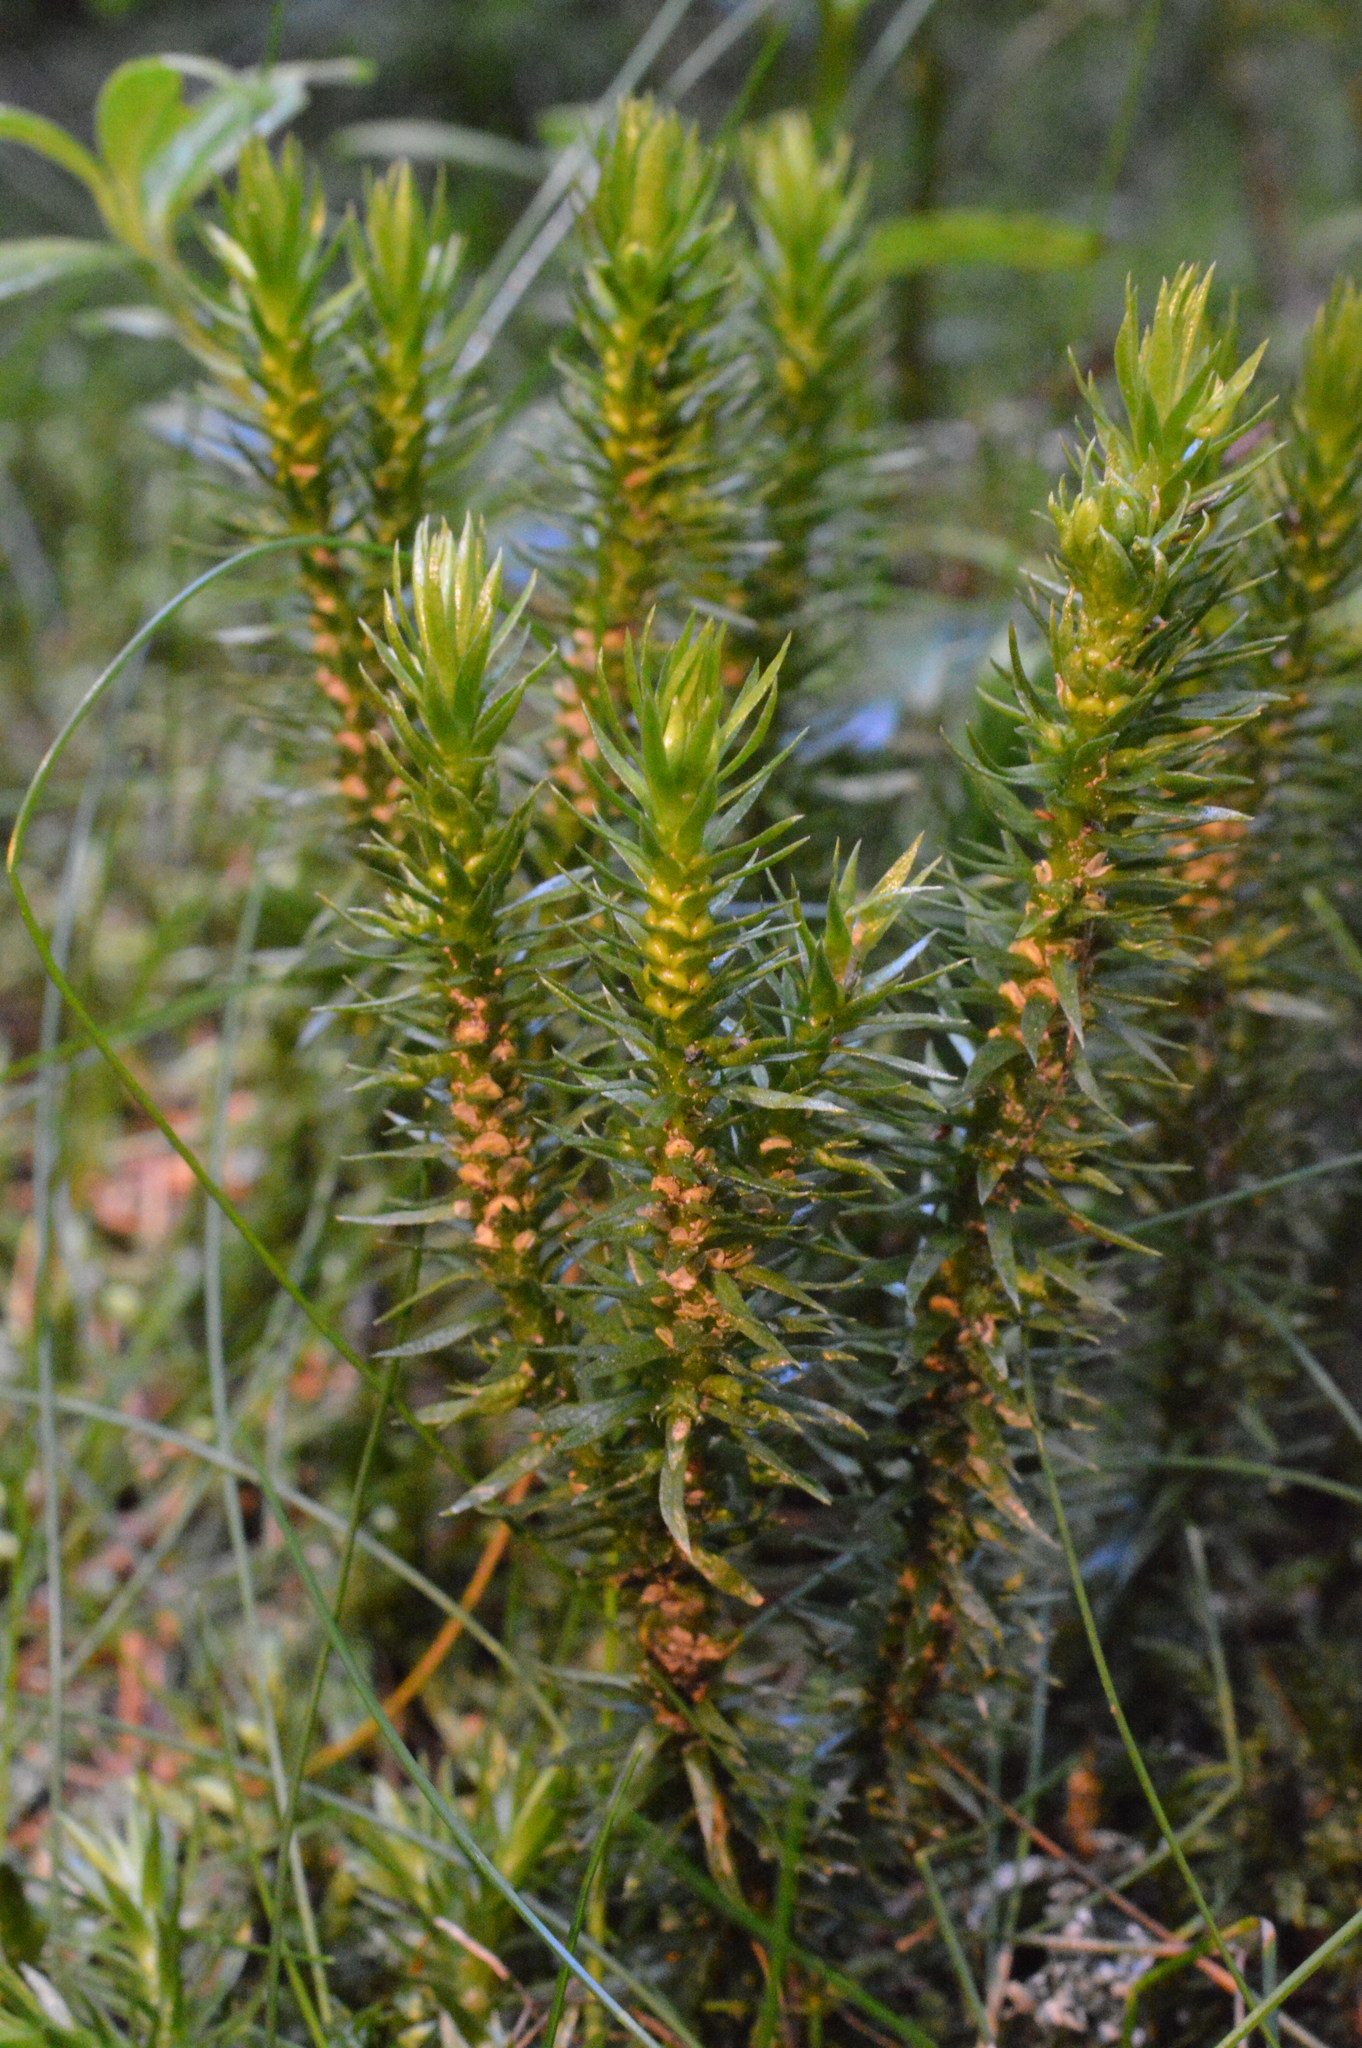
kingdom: Plantae
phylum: Tracheophyta
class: Lycopodiopsida
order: Lycopodiales
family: Lycopodiaceae
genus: Huperzia
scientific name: Huperzia selago
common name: Northern firmoss
